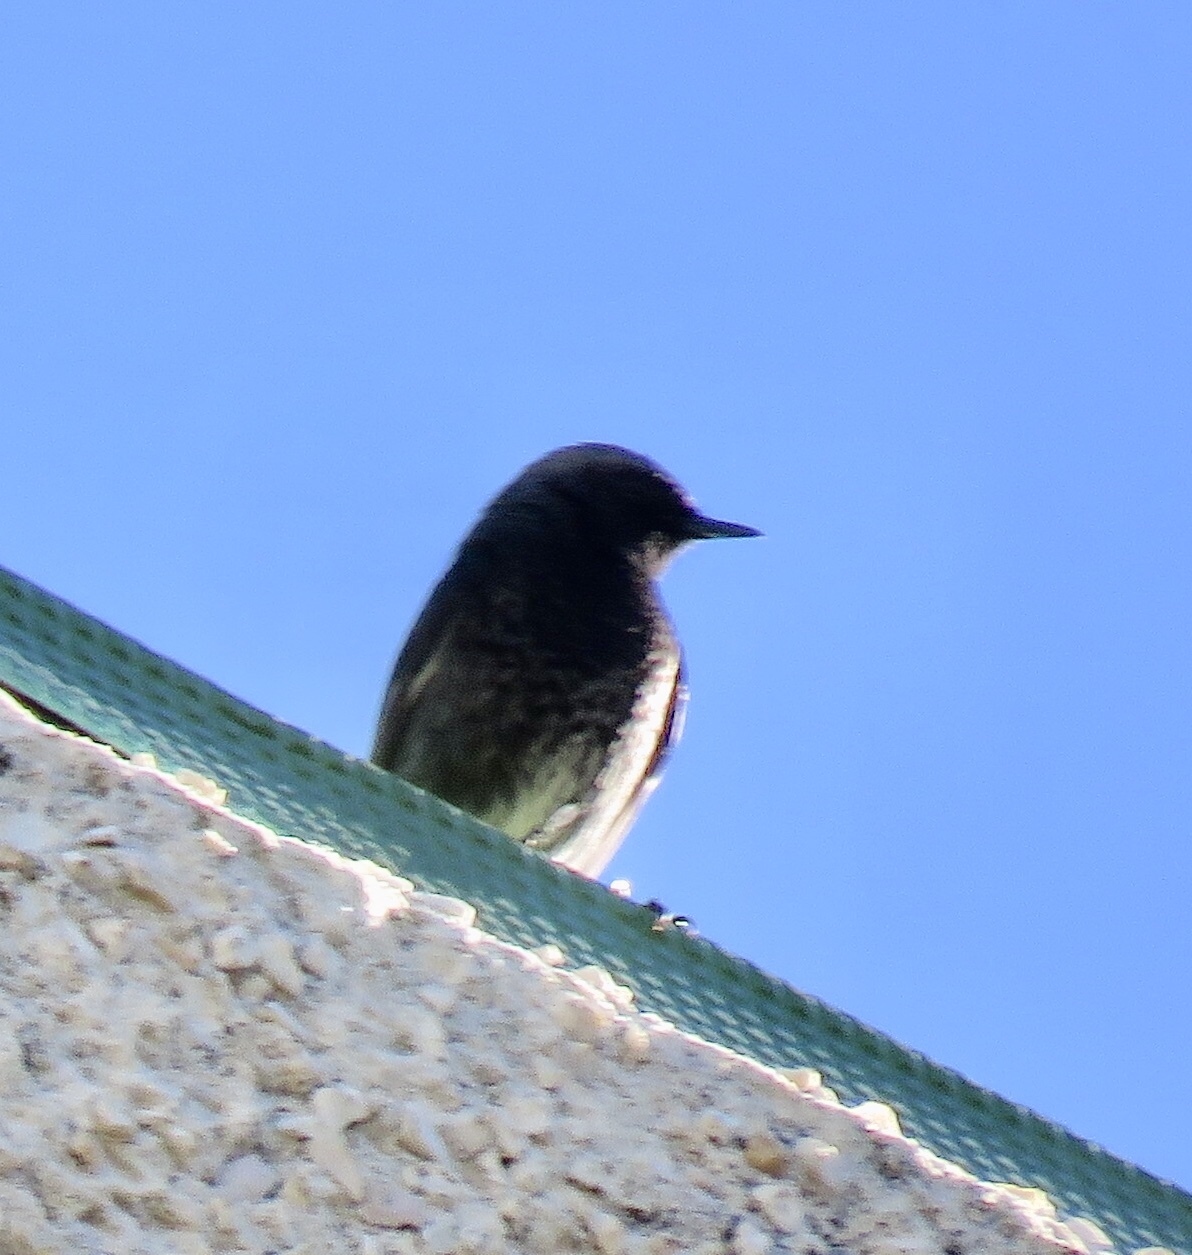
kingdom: Animalia
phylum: Chordata
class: Aves
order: Passeriformes
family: Muscicapidae
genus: Phoenicurus
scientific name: Phoenicurus ochruros
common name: Black redstart
